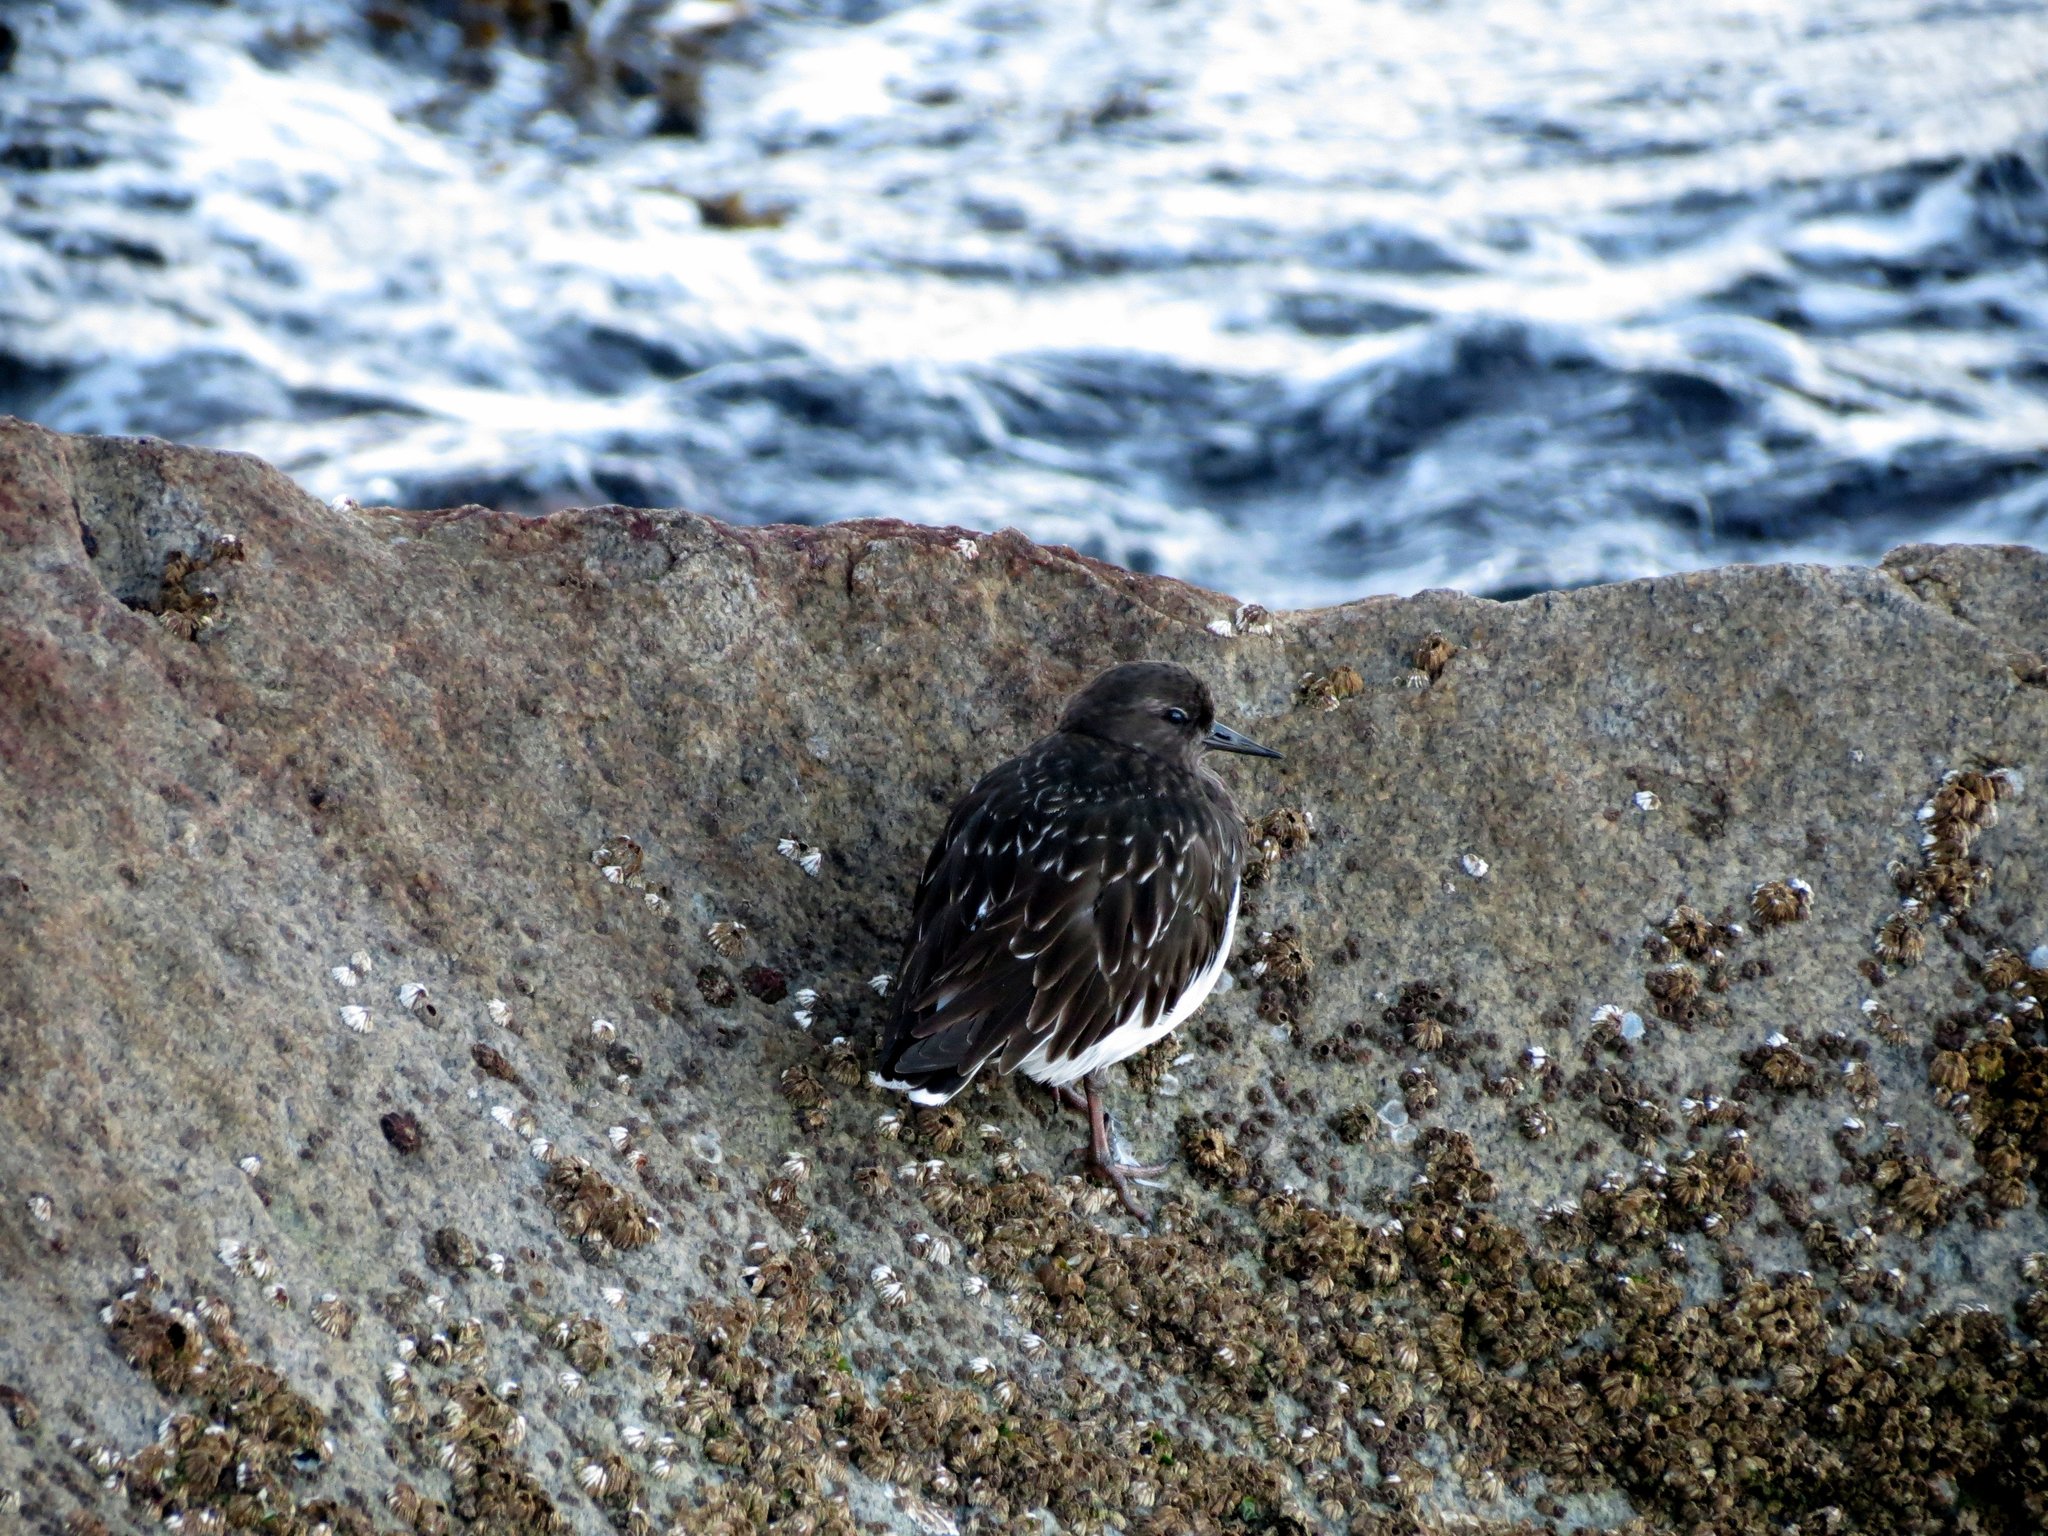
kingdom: Animalia
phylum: Chordata
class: Aves
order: Charadriiformes
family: Scolopacidae
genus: Arenaria
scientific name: Arenaria melanocephala
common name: Black turnstone
